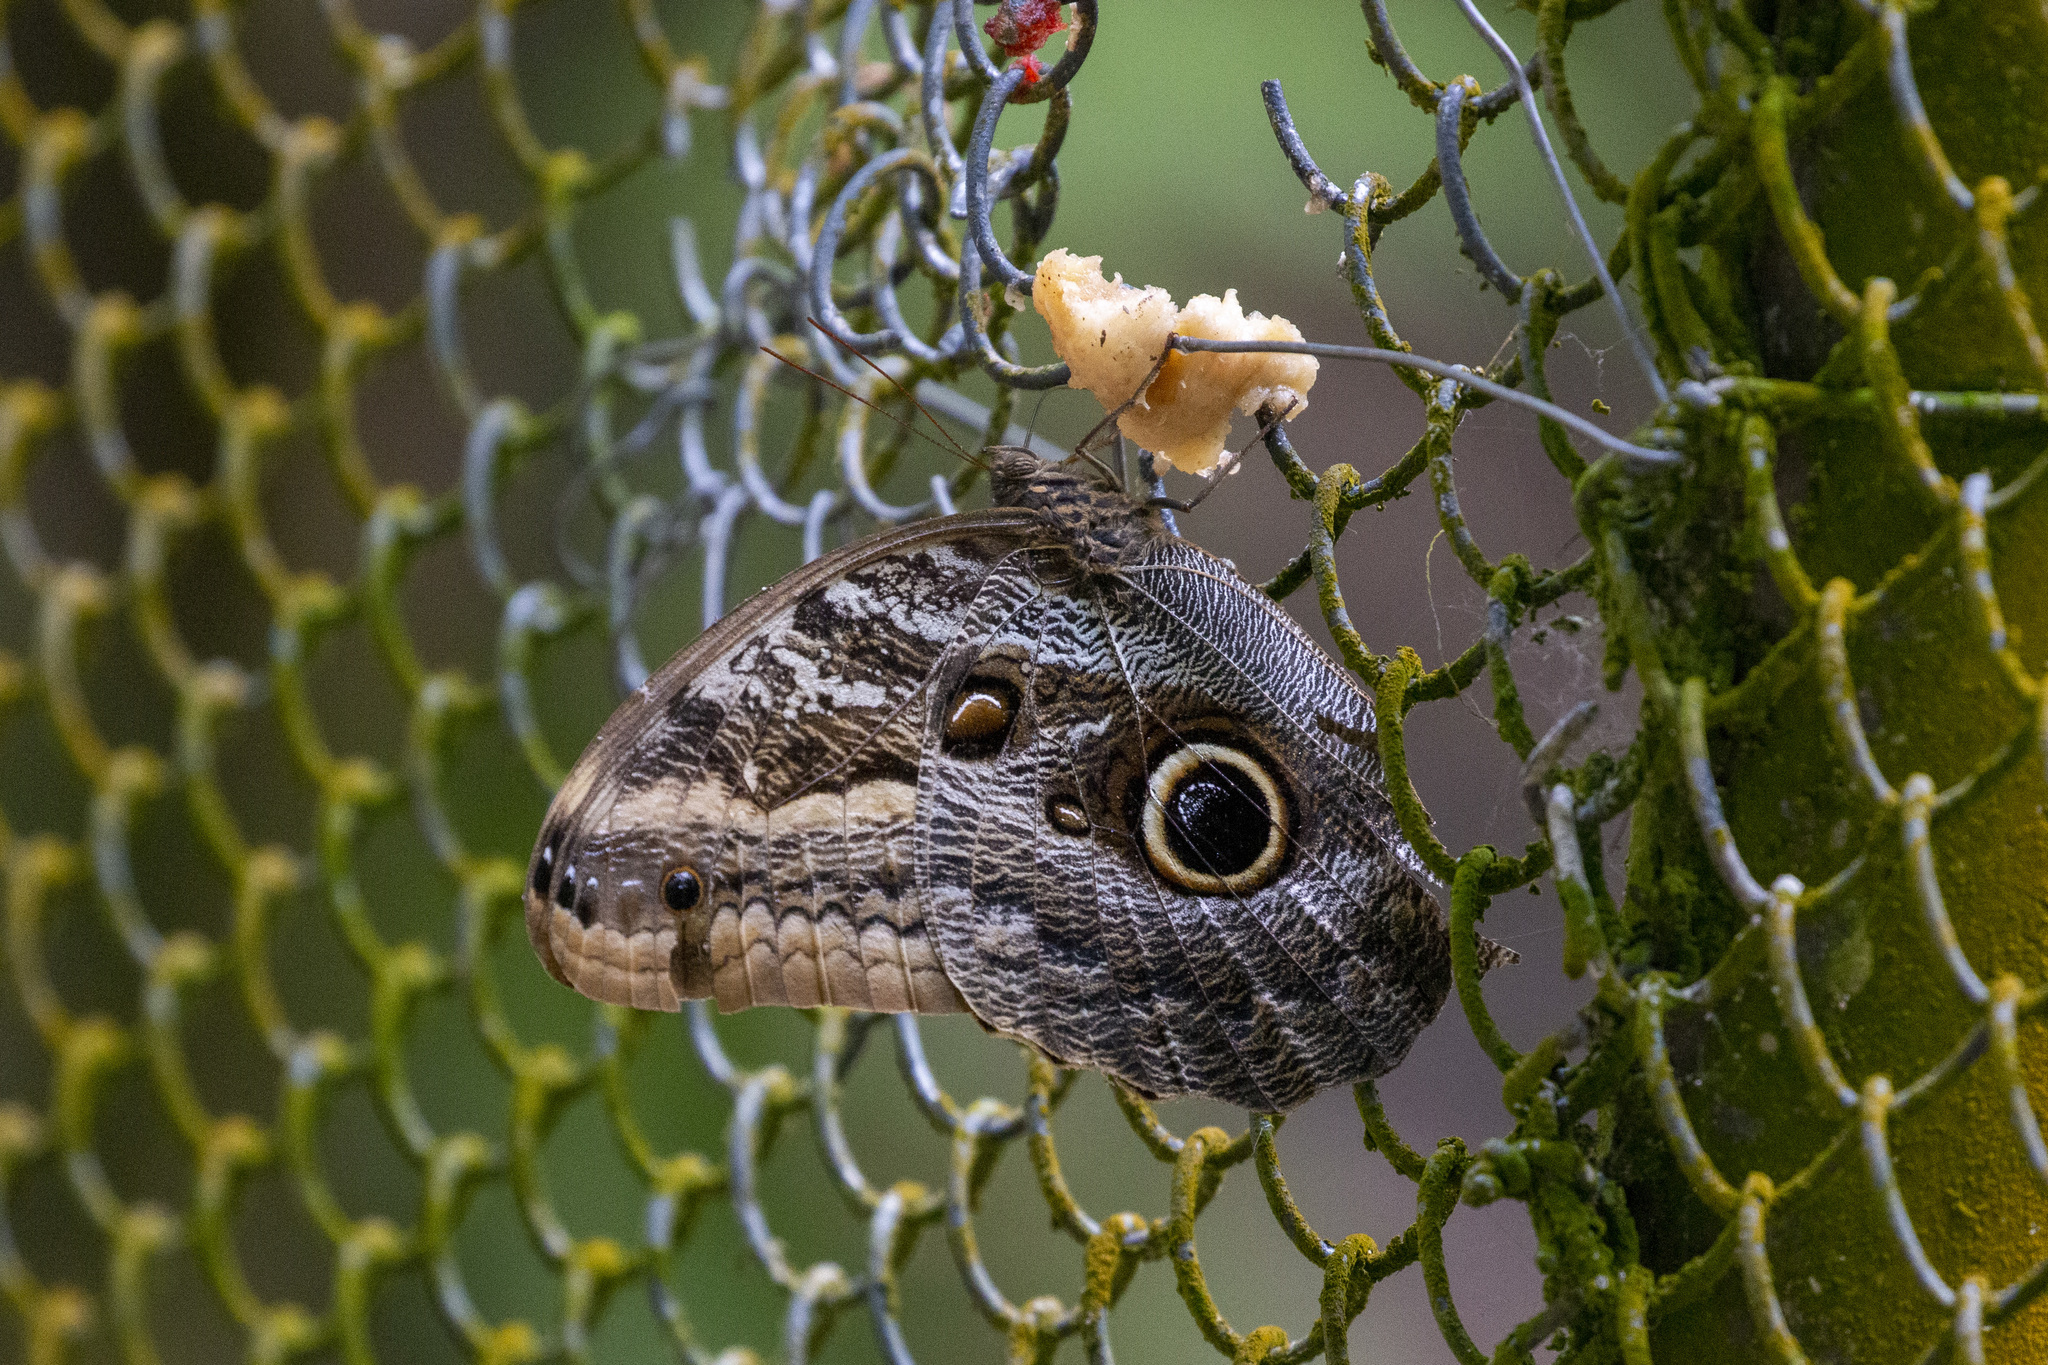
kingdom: Animalia
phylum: Arthropoda
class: Insecta
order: Lepidoptera
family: Nymphalidae
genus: Caligo
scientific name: Caligo teucer
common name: Teucer owl butterfly
